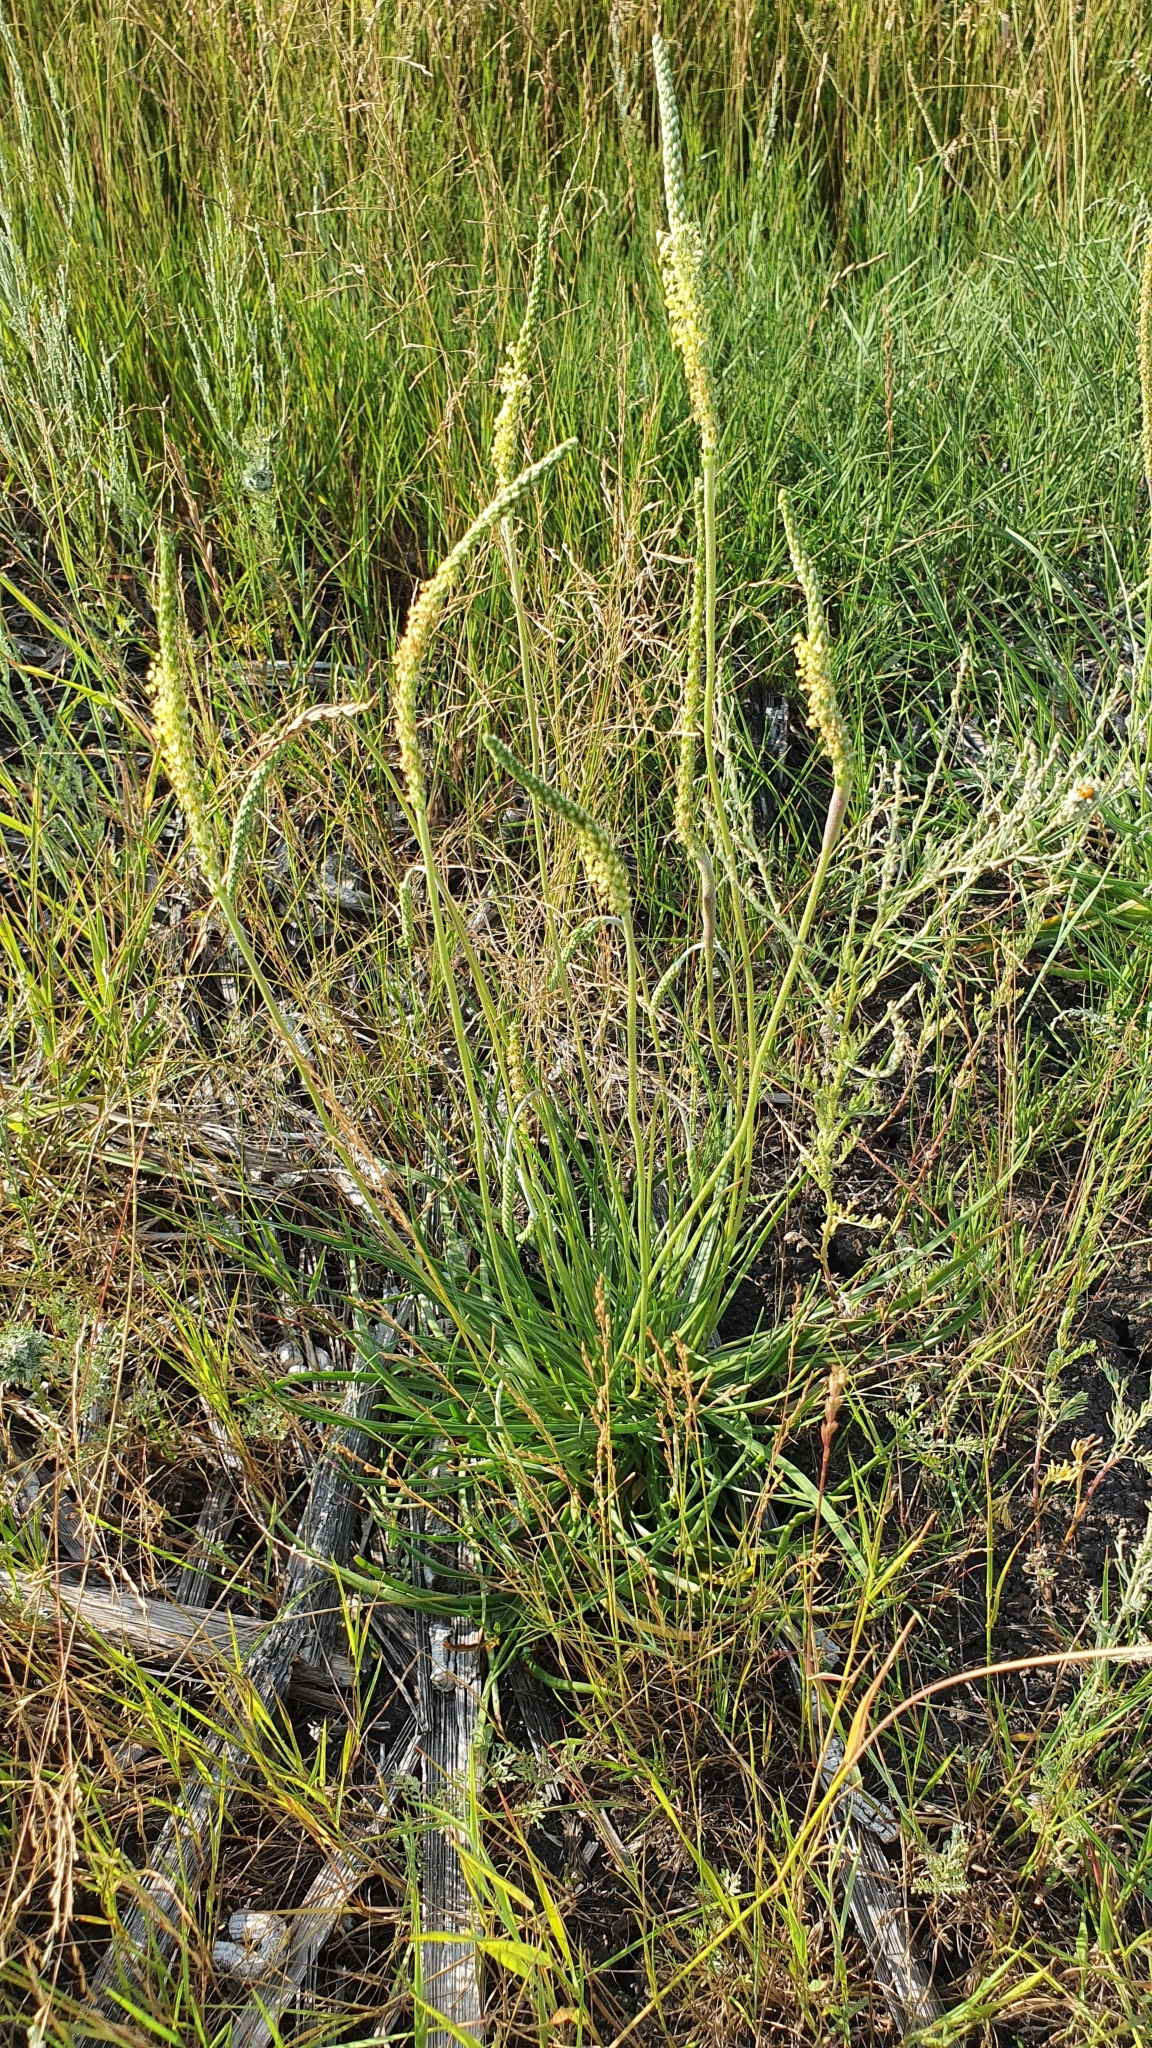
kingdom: Plantae
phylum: Tracheophyta
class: Magnoliopsida
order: Lamiales
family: Plantaginaceae
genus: Plantago
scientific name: Plantago salsa
